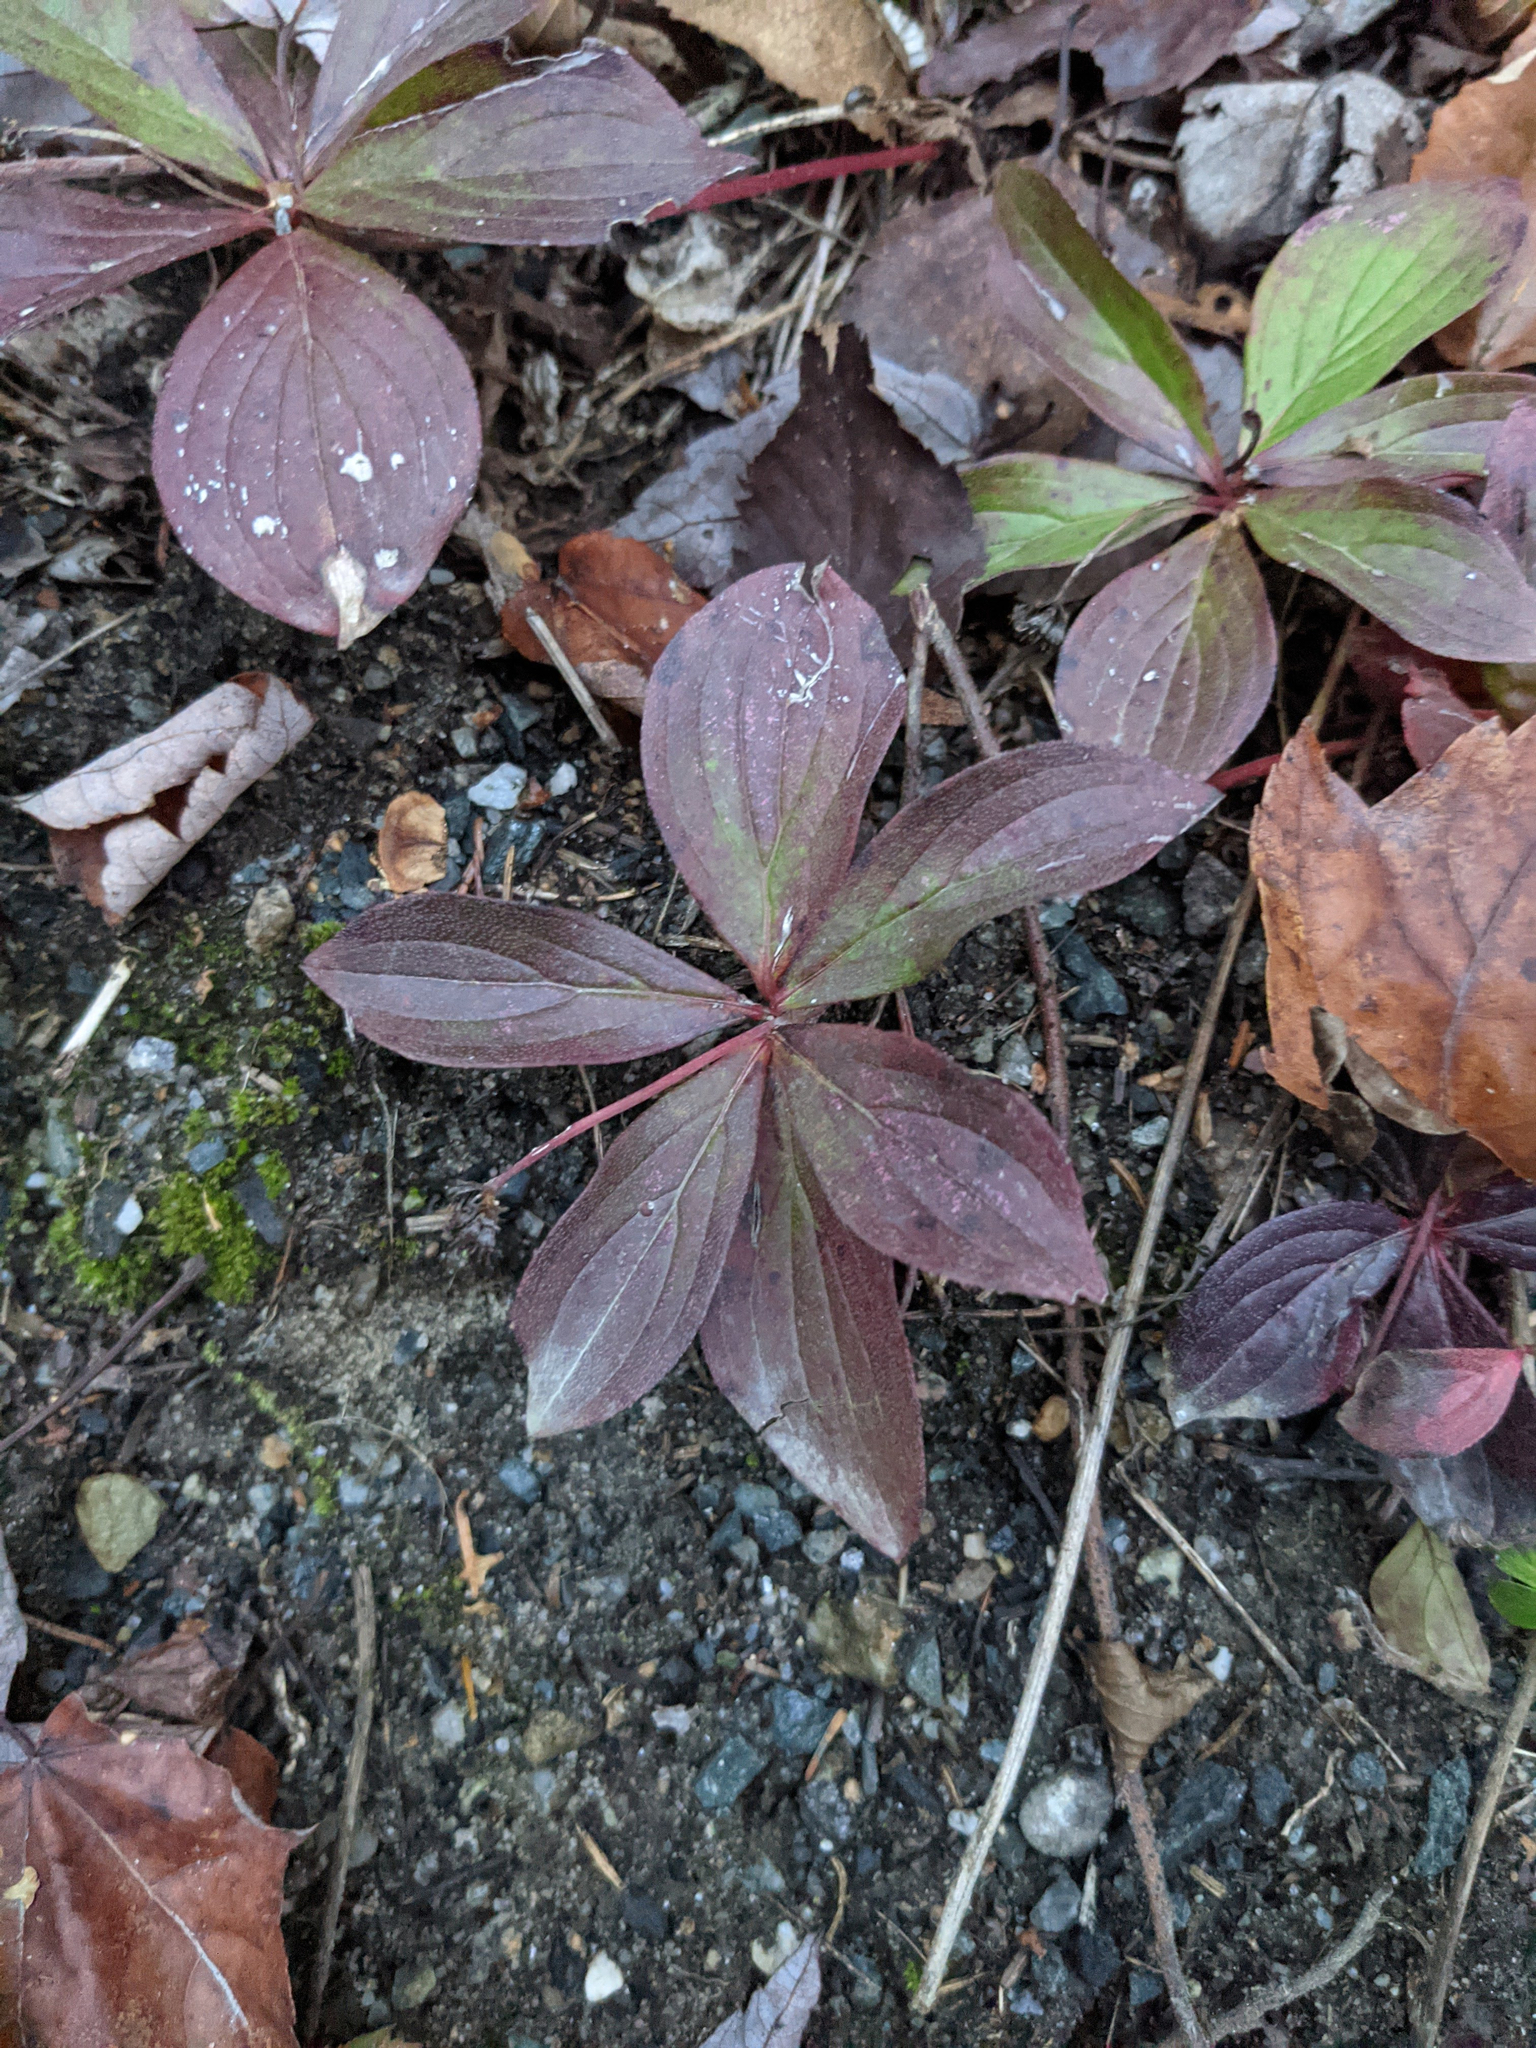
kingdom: Plantae
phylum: Tracheophyta
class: Magnoliopsida
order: Cornales
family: Cornaceae
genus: Cornus
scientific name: Cornus canadensis
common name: Creeping dogwood
